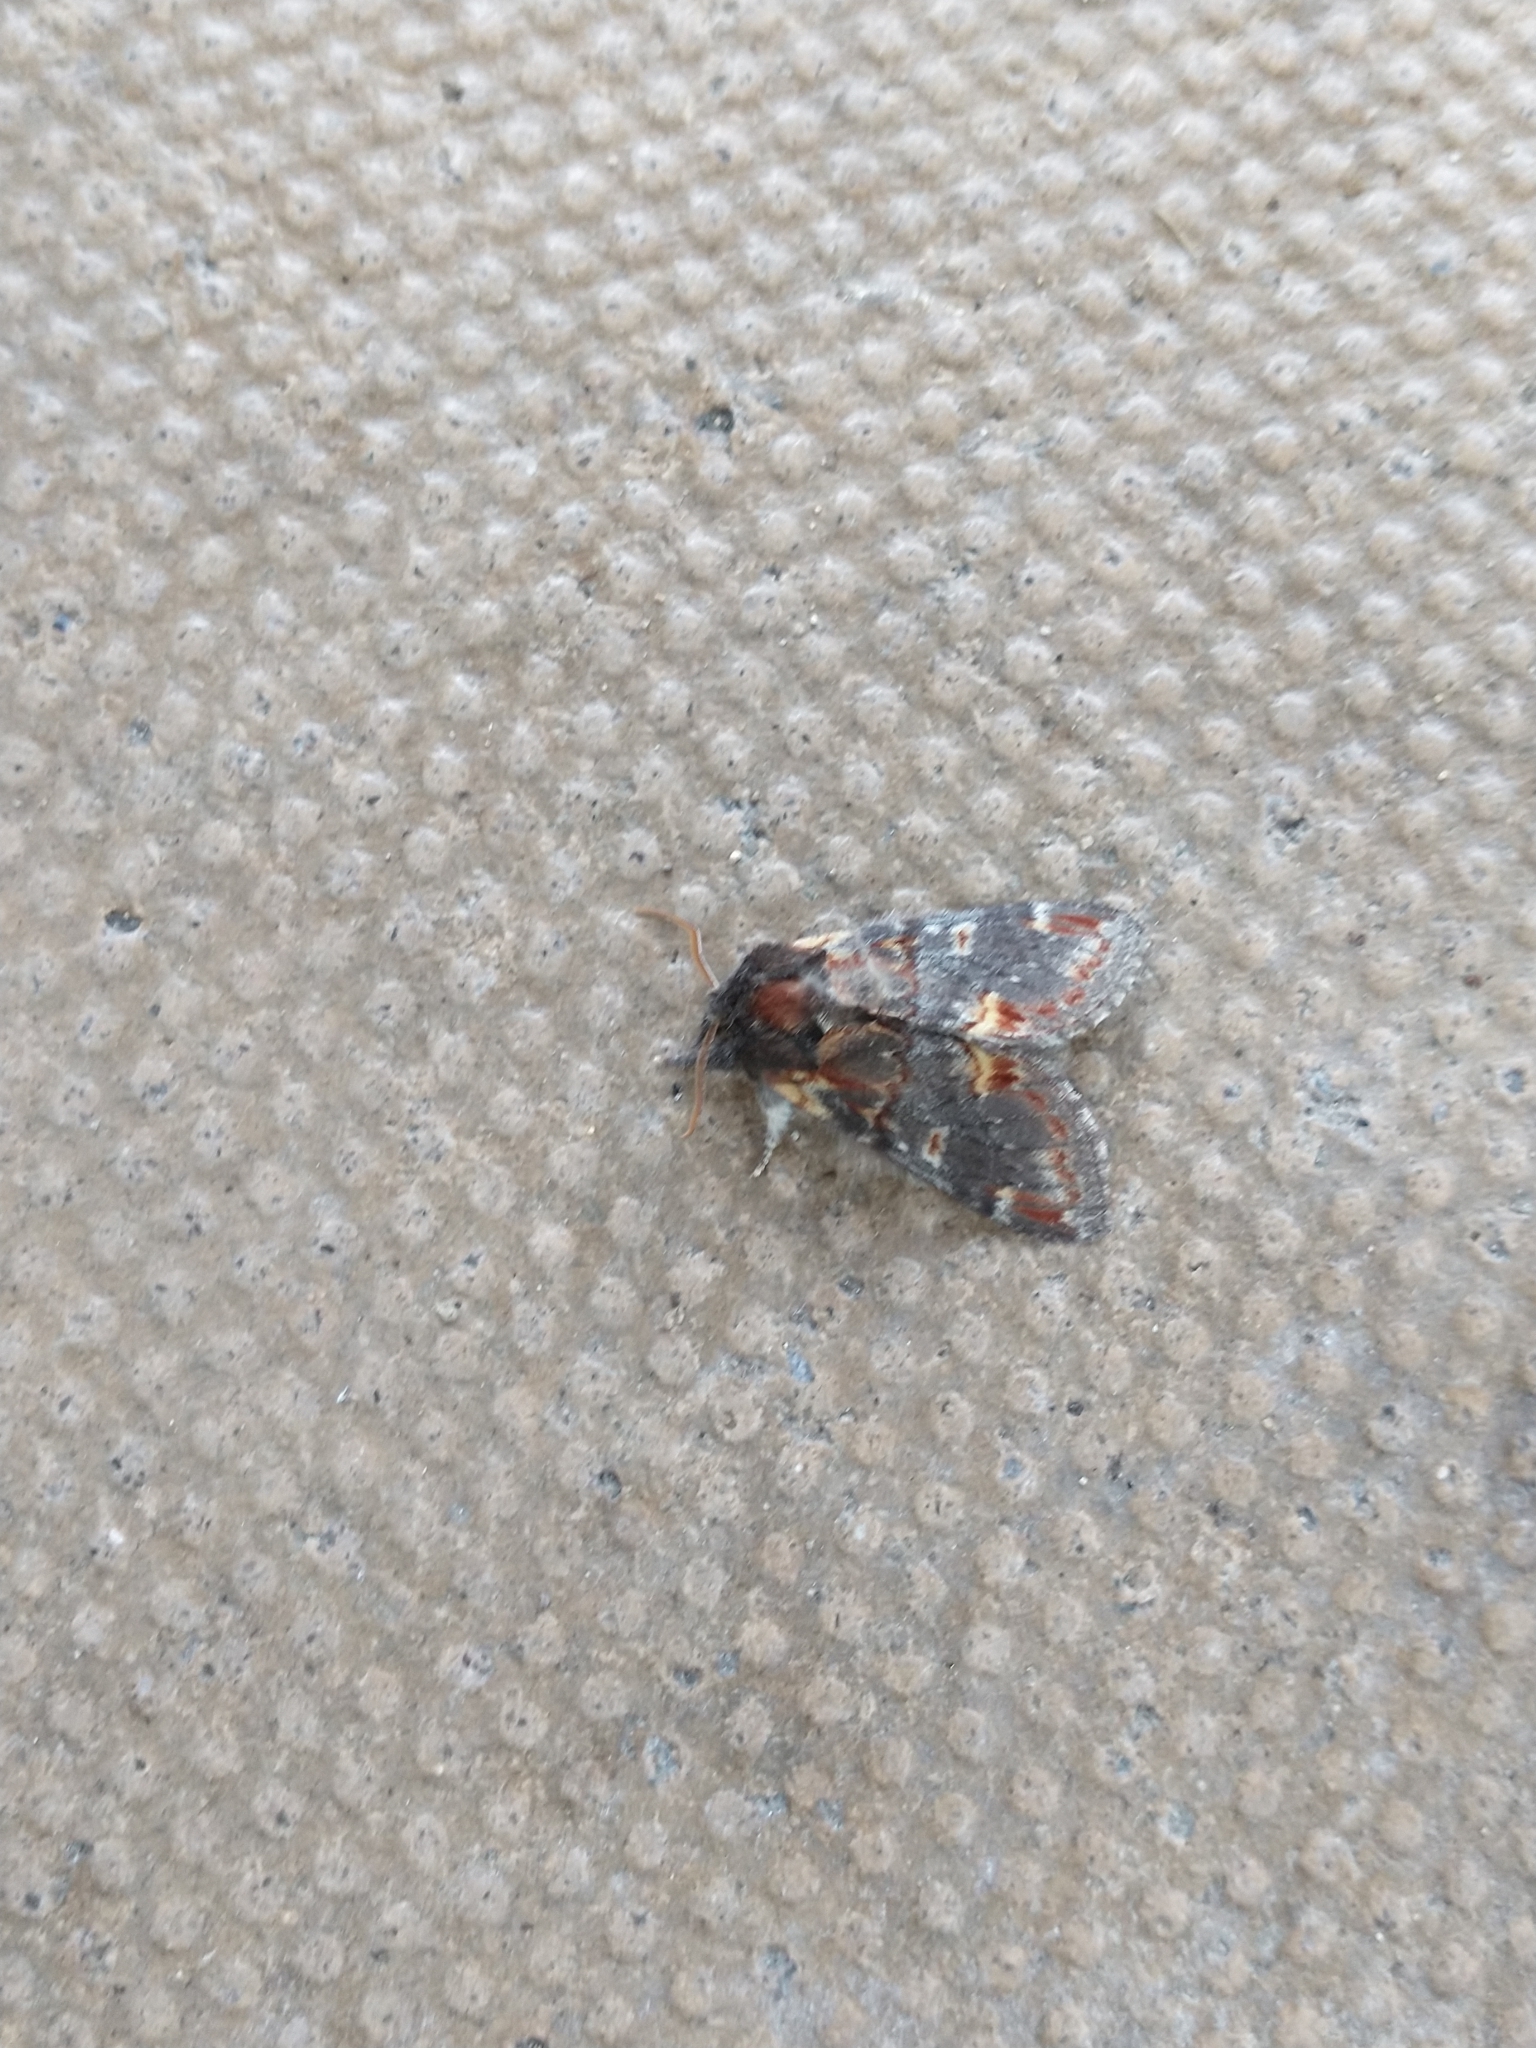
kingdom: Animalia
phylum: Arthropoda
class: Insecta
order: Lepidoptera
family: Notodontidae
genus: Notodonta
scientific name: Notodonta dromedarius
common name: Iron prominent
